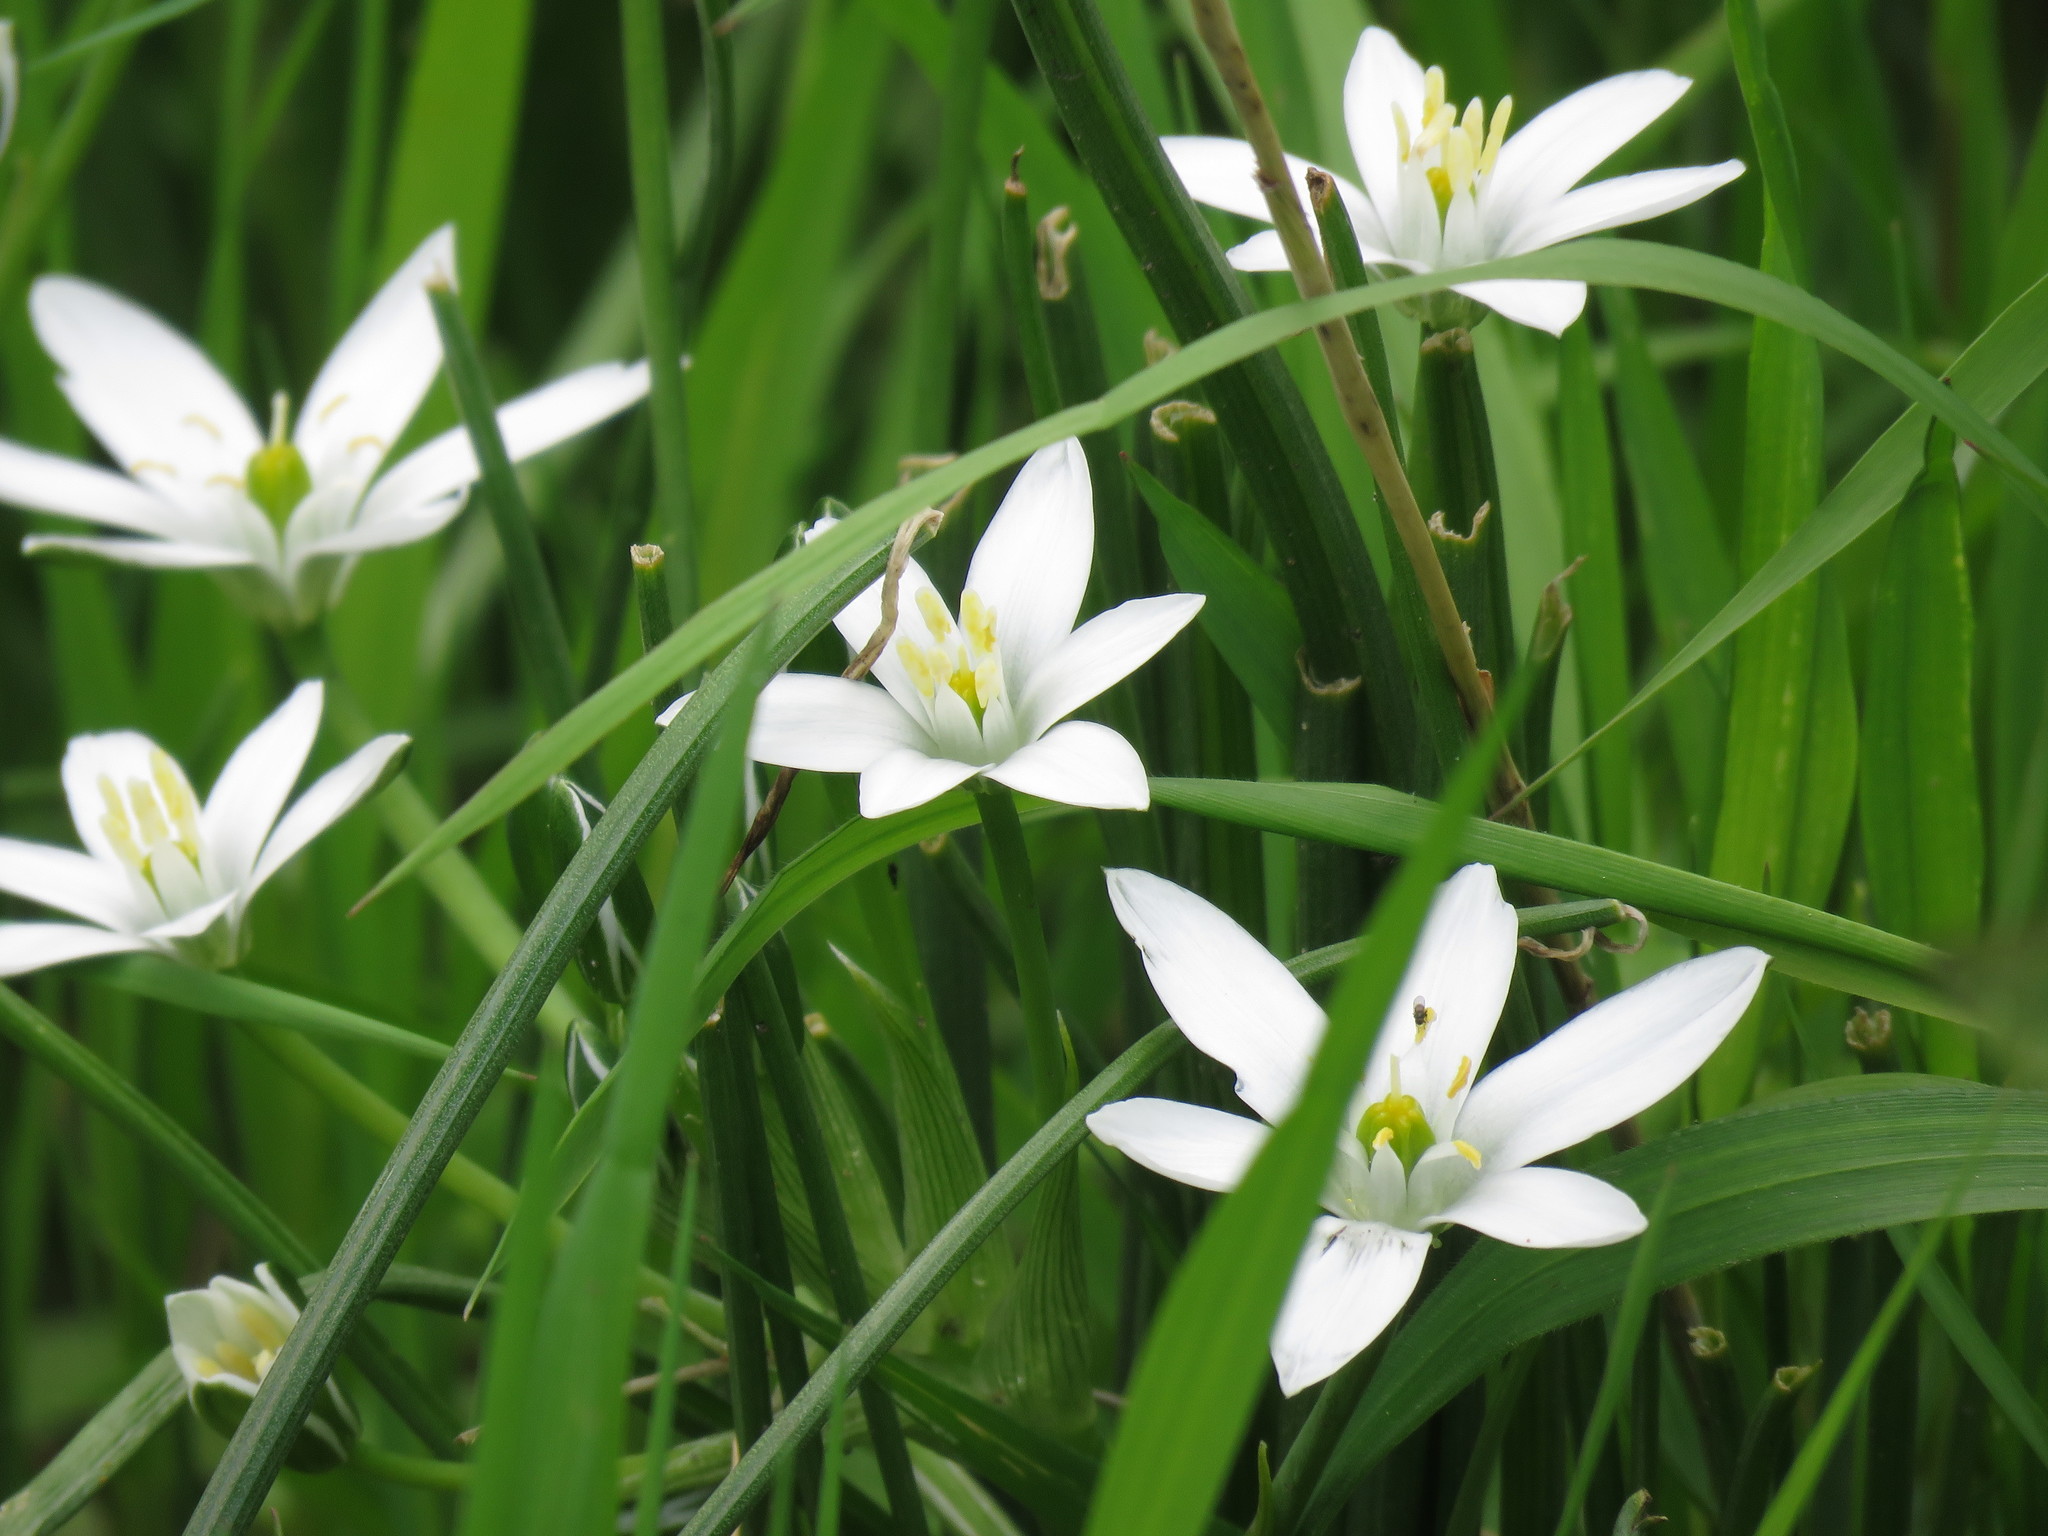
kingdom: Plantae
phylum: Tracheophyta
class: Liliopsida
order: Asparagales
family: Asparagaceae
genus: Ornithogalum
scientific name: Ornithogalum umbellatum
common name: Garden star-of-bethlehem
